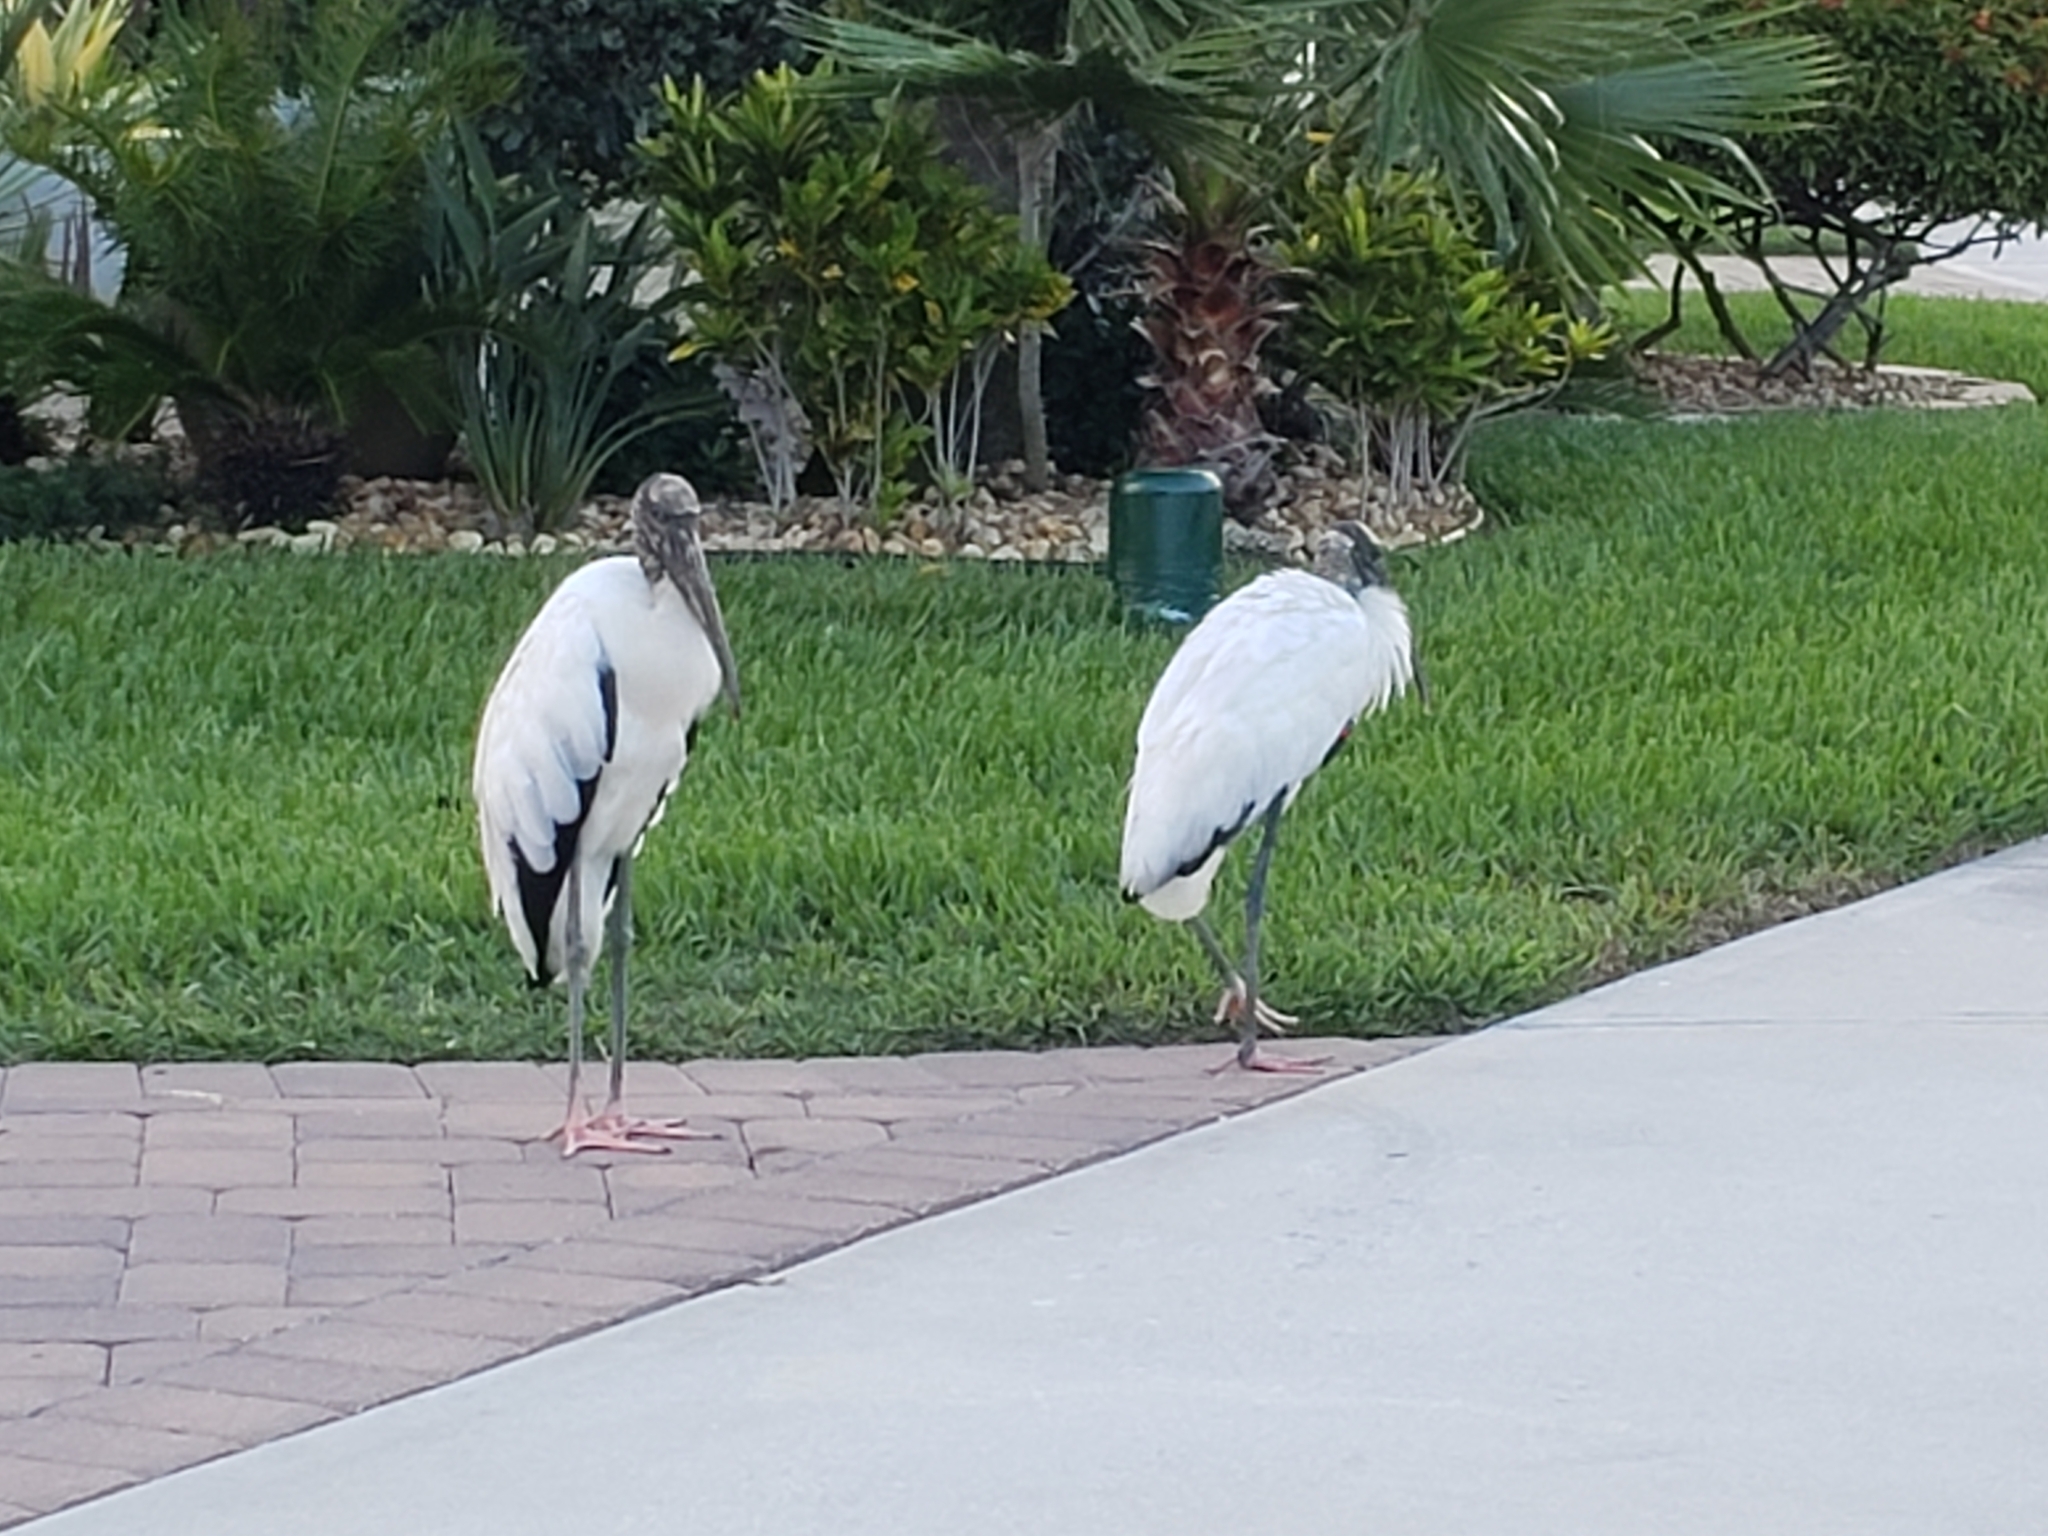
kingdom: Animalia
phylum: Chordata
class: Aves
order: Ciconiiformes
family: Ciconiidae
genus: Mycteria
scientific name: Mycteria americana
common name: Wood stork
